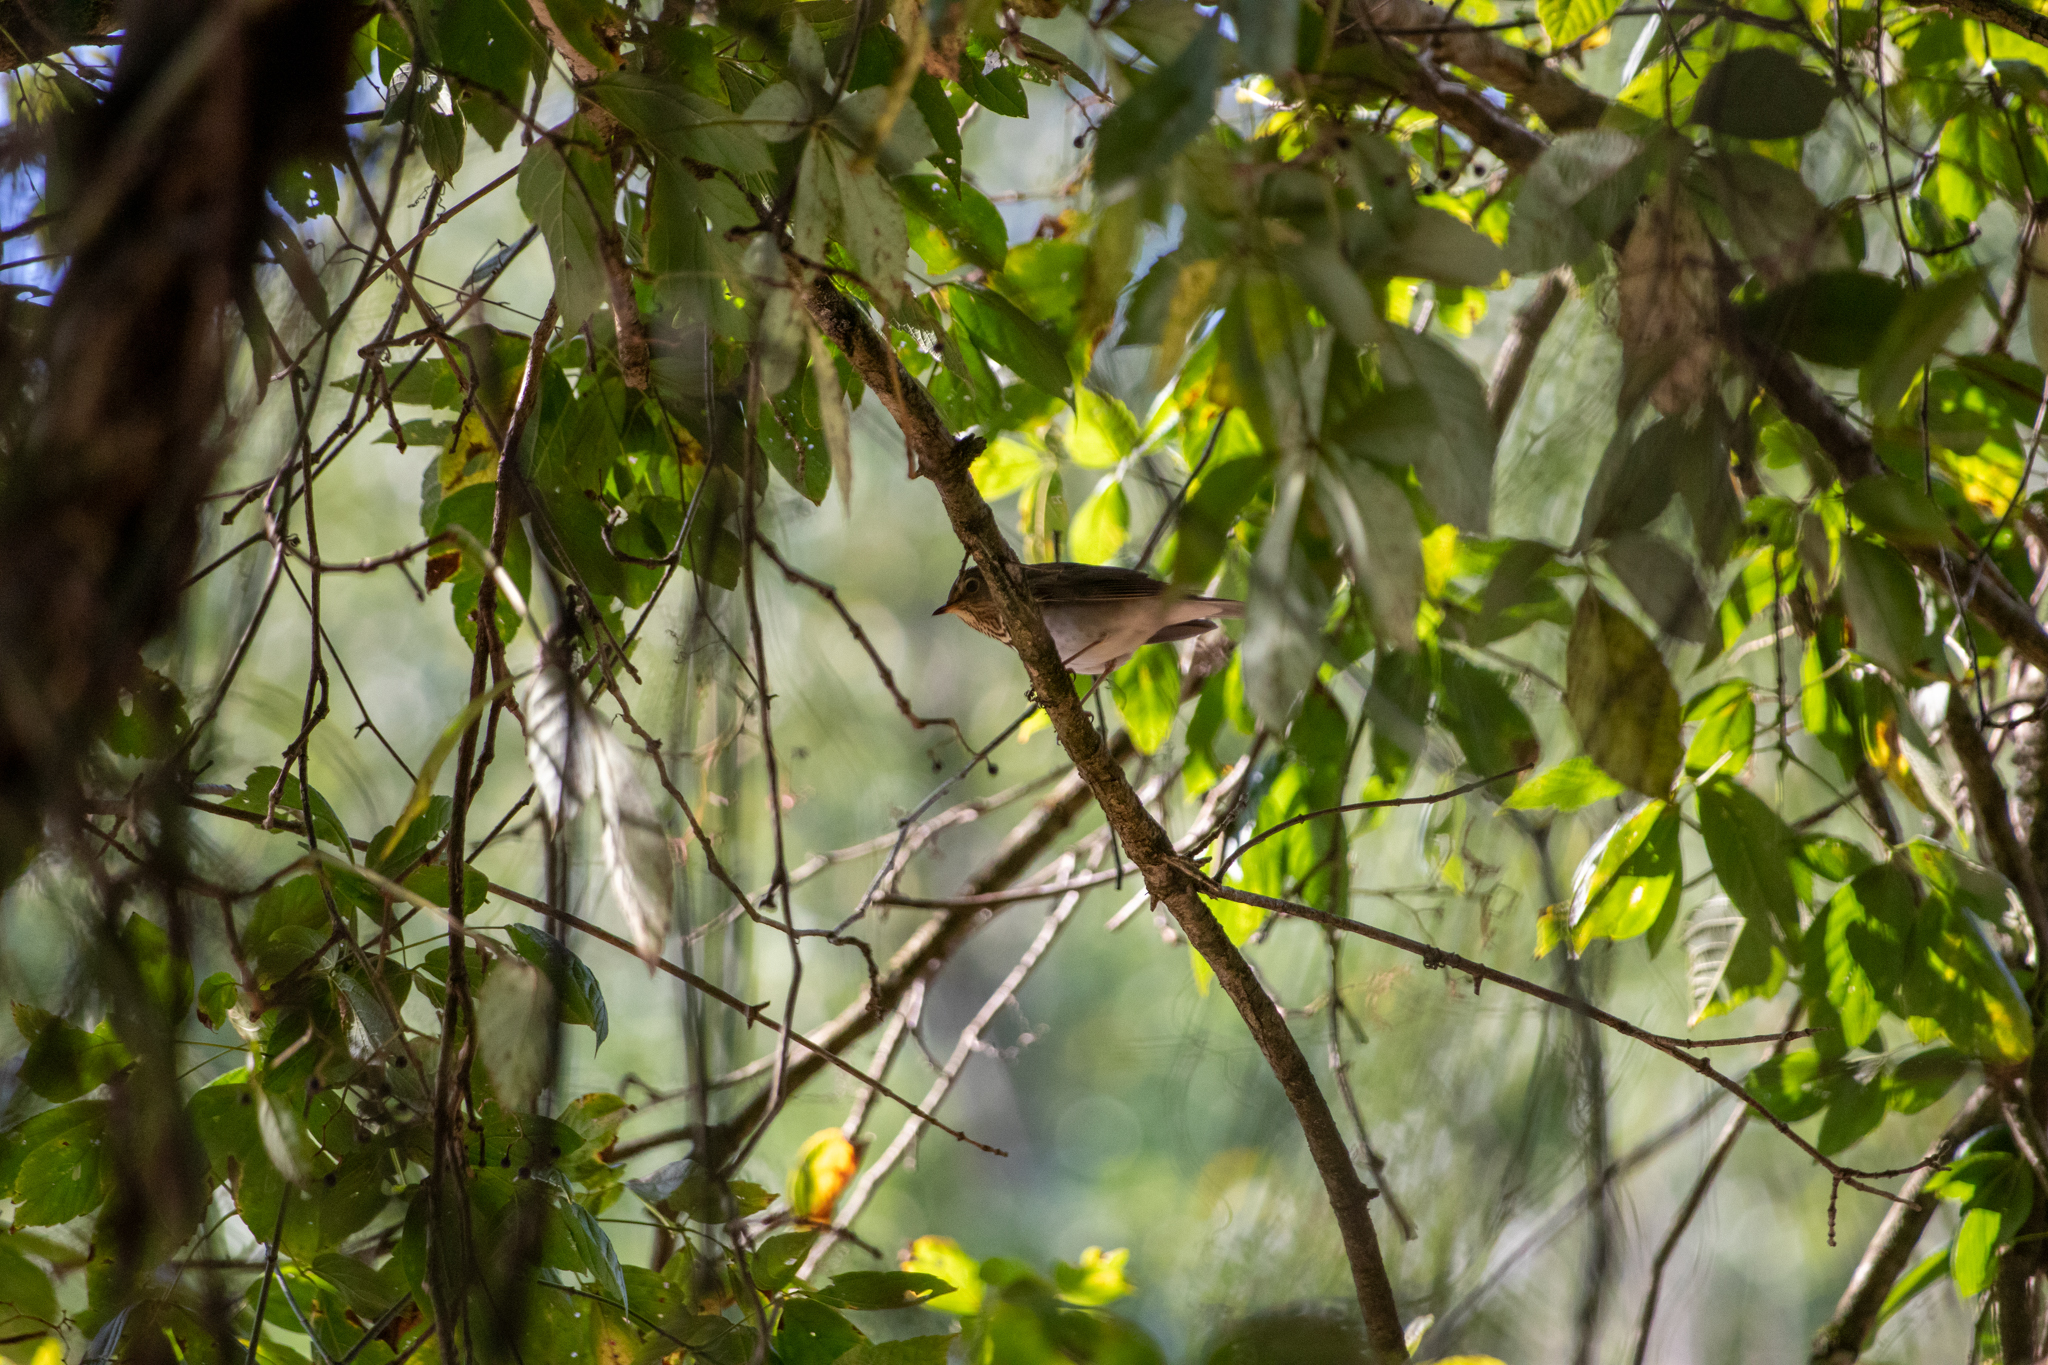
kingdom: Animalia
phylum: Chordata
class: Aves
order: Passeriformes
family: Turdidae
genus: Catharus
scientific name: Catharus ustulatus
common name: Swainson's thrush
